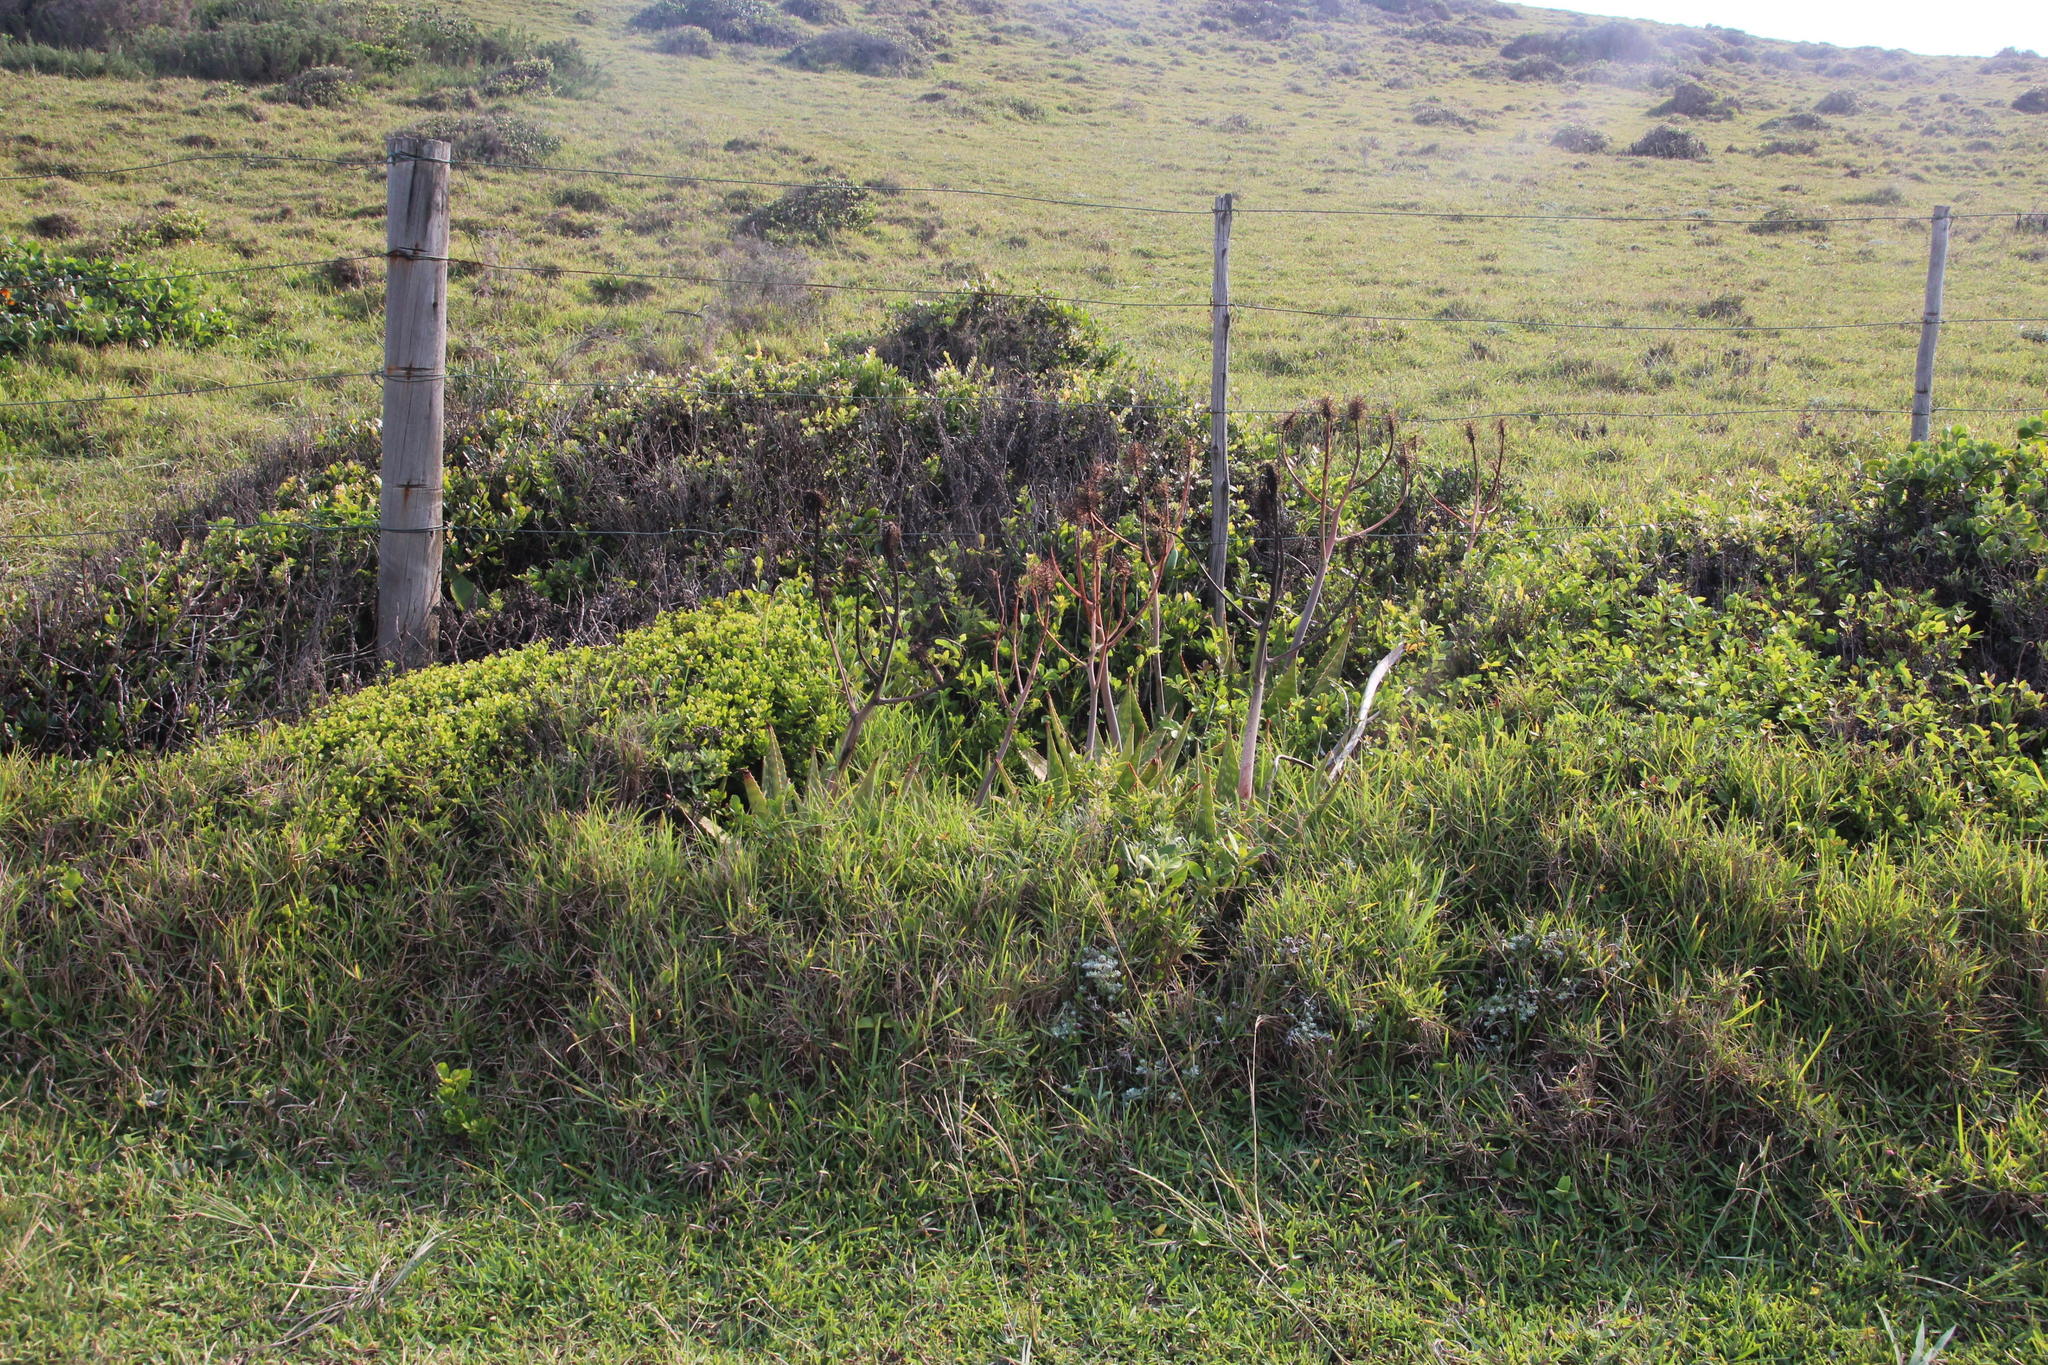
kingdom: Plantae
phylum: Tracheophyta
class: Liliopsida
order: Asparagales
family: Asphodelaceae
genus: Aloe
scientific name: Aloe maculata
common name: Broadleaf aloe
